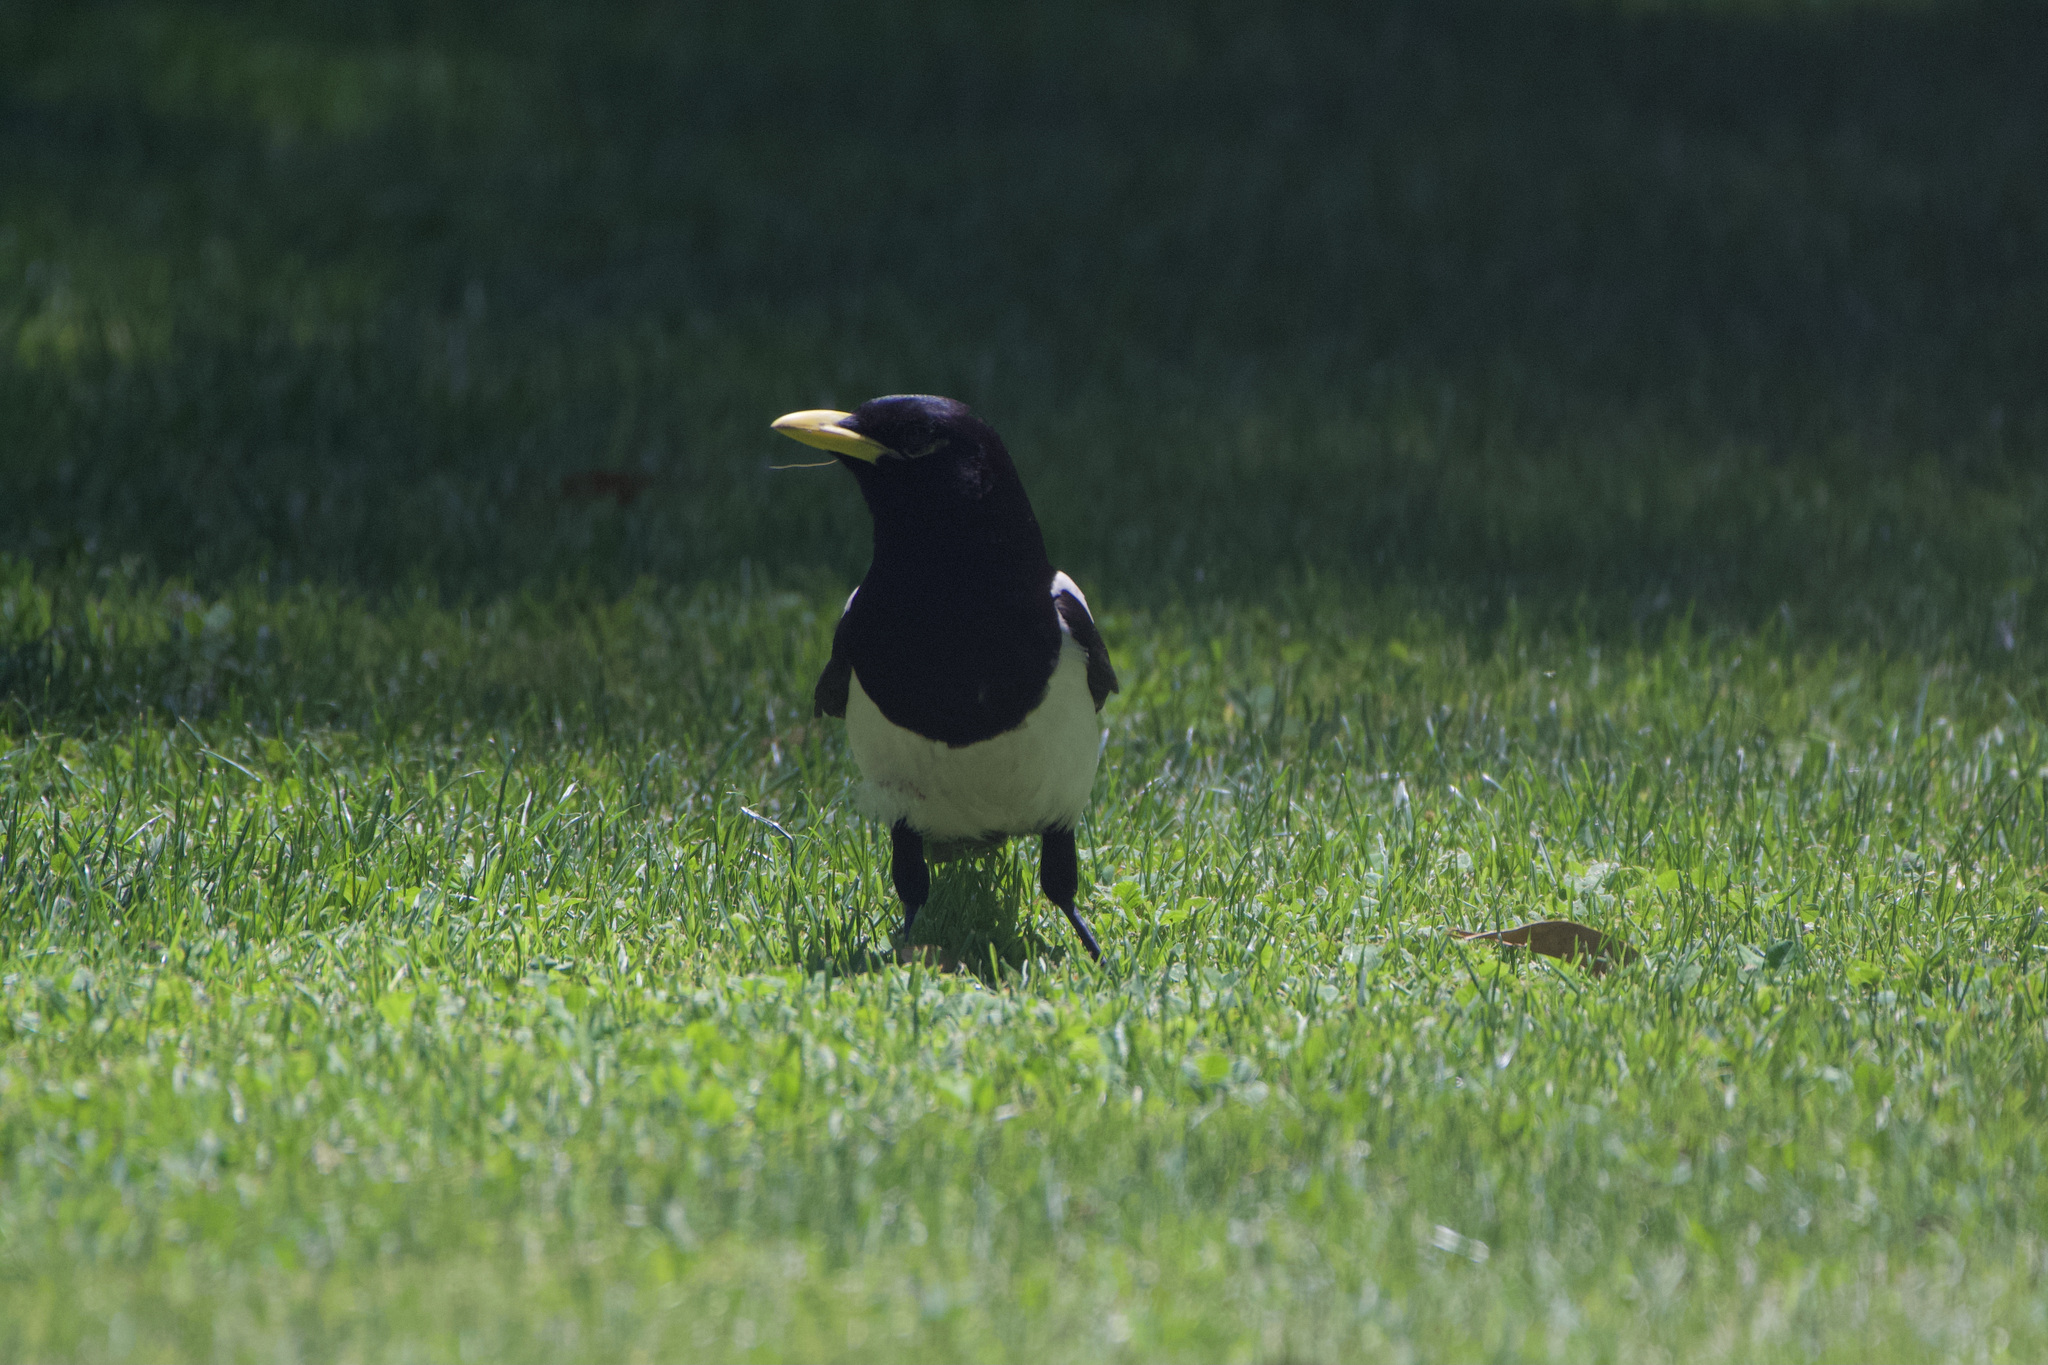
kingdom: Animalia
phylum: Chordata
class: Aves
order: Passeriformes
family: Corvidae
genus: Pica
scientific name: Pica nuttalli
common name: Yellow-billed magpie
